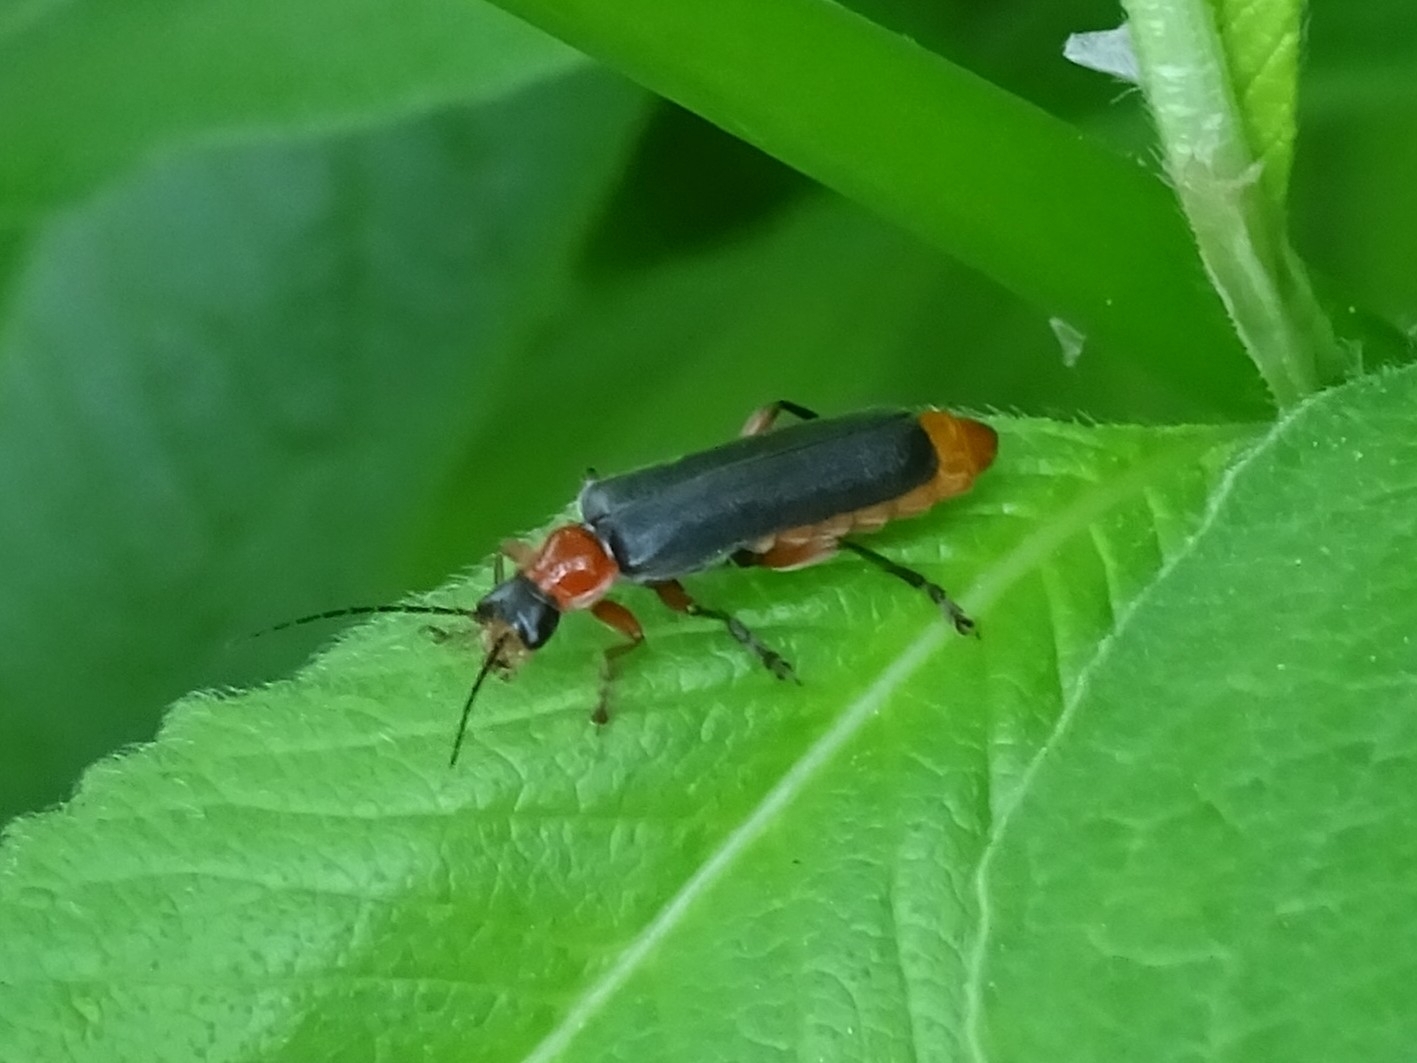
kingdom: Animalia
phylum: Arthropoda
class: Insecta
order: Coleoptera
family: Cantharidae
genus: Cantharis
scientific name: Cantharis pellucida
